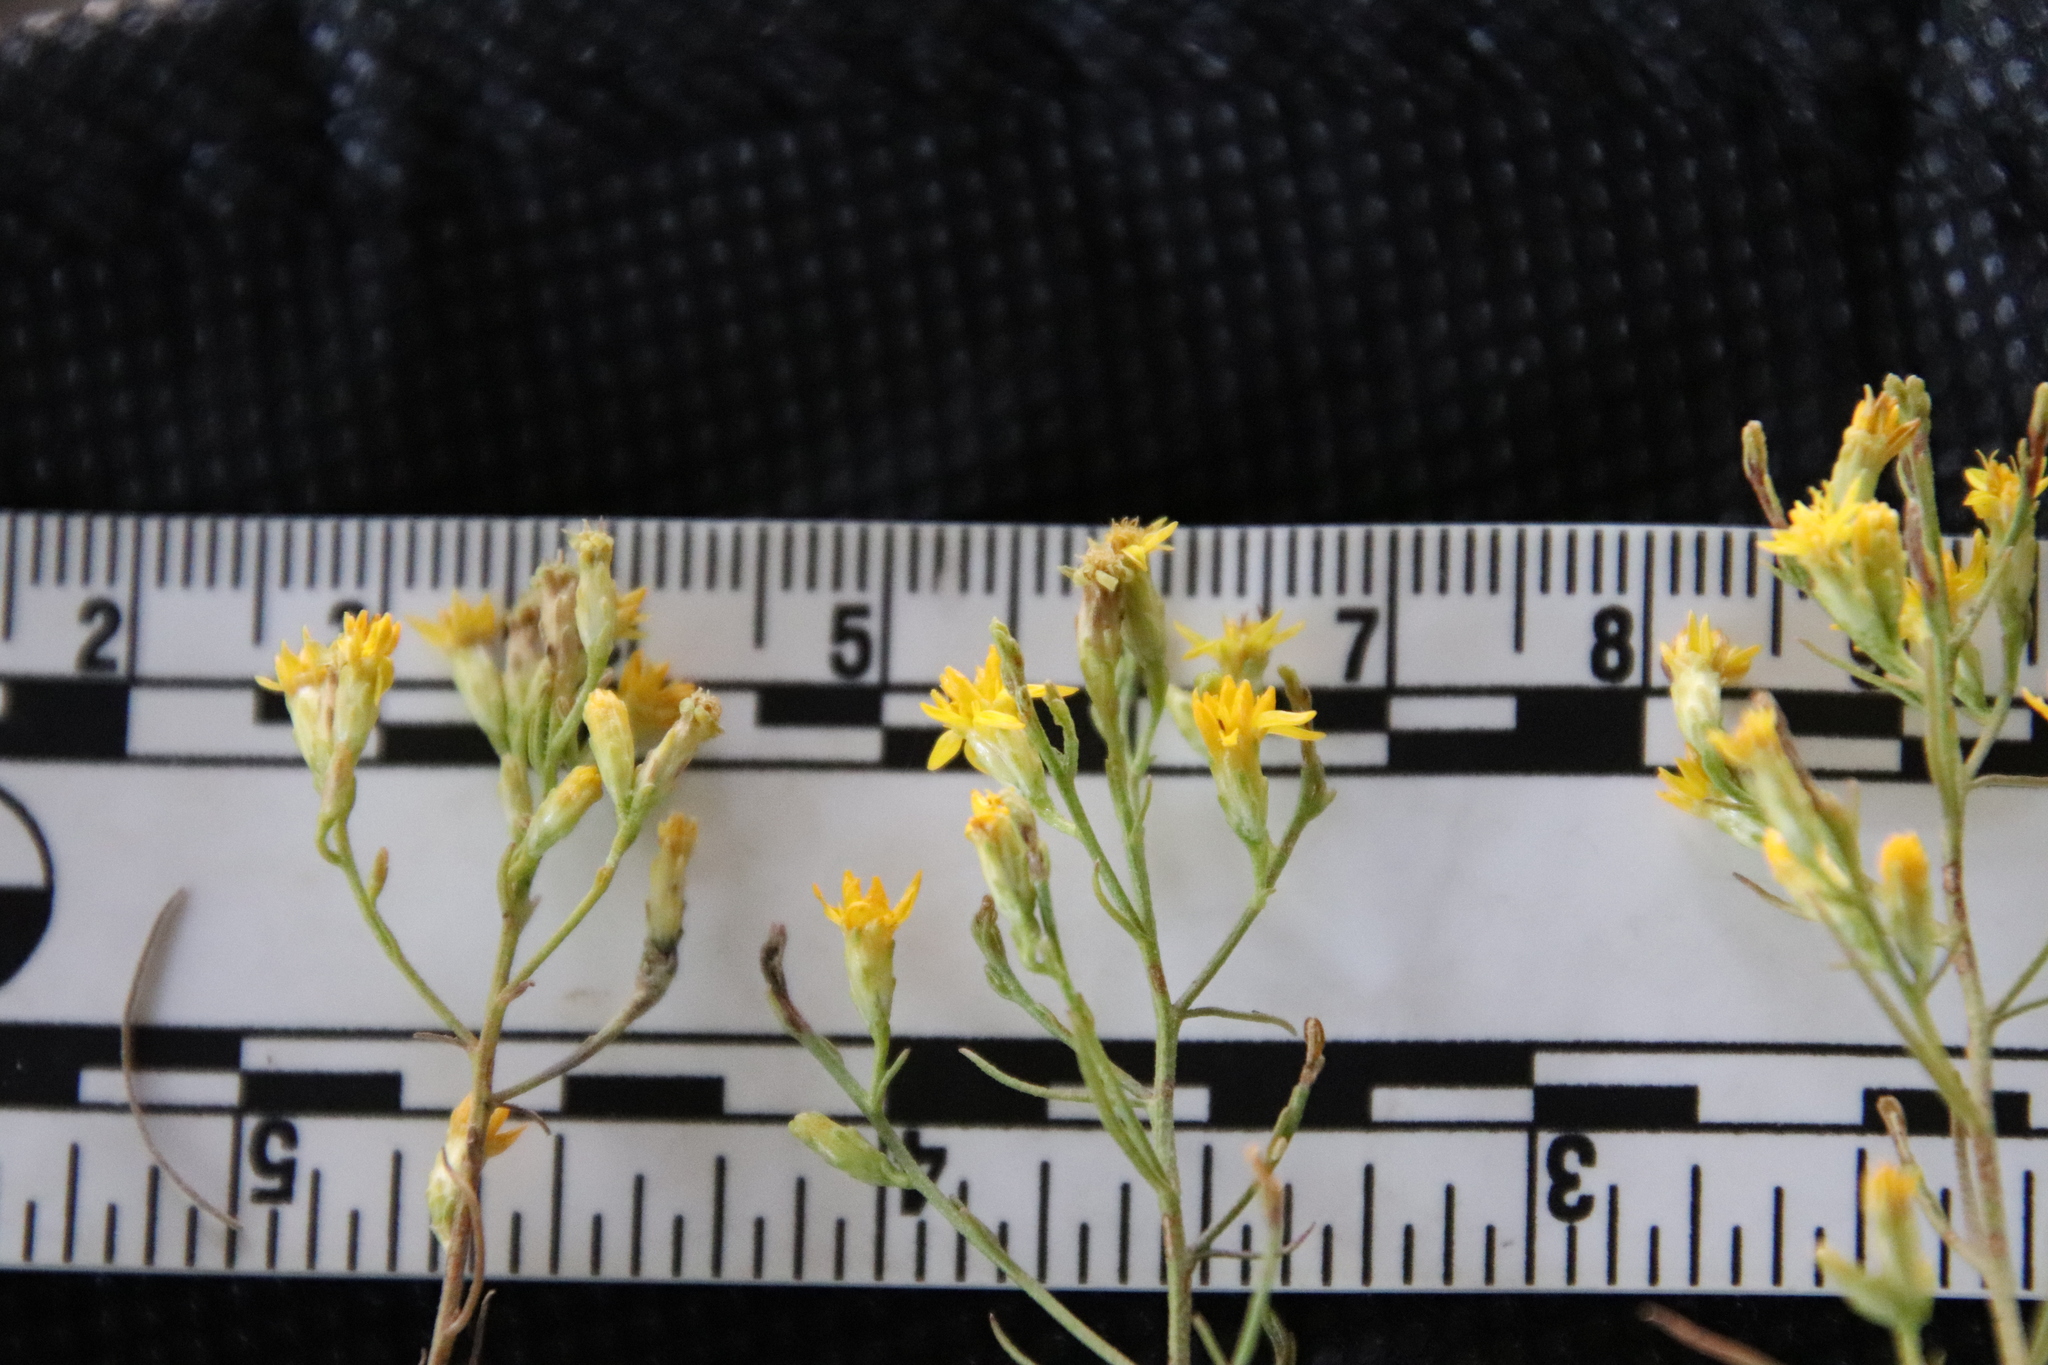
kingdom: Plantae
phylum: Tracheophyta
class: Magnoliopsida
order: Asterales
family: Asteraceae
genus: Gutierrezia
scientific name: Gutierrezia sarothrae
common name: Broom snakeweed
